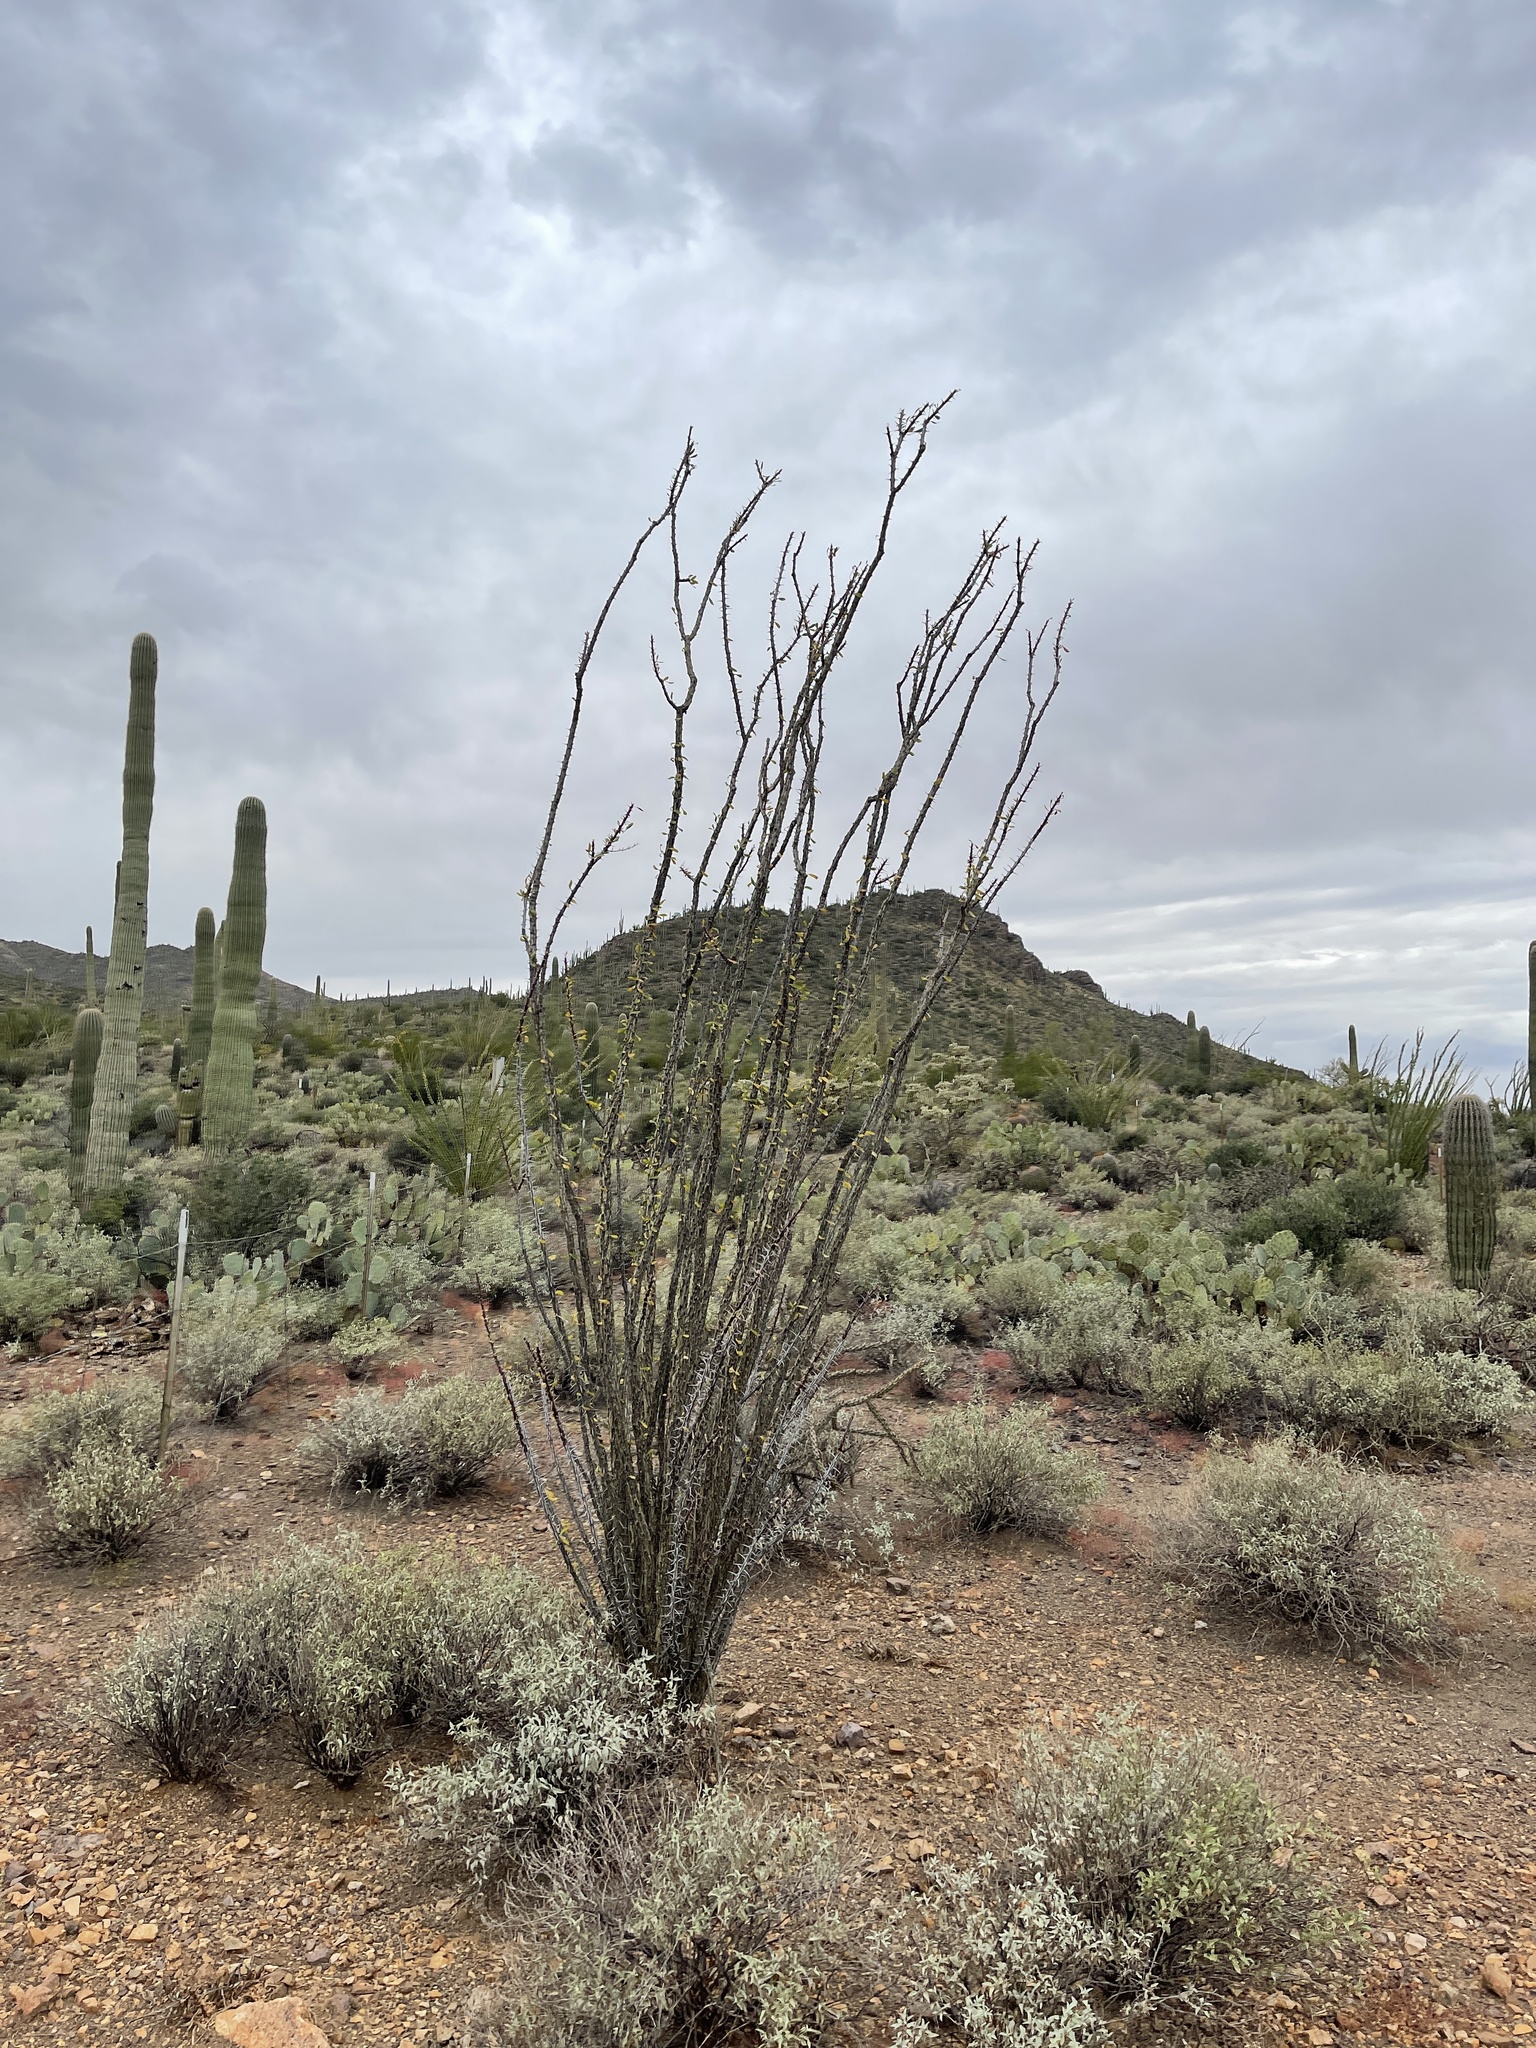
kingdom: Plantae
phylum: Tracheophyta
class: Magnoliopsida
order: Ericales
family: Fouquieriaceae
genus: Fouquieria
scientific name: Fouquieria splendens
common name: Vine-cactus
